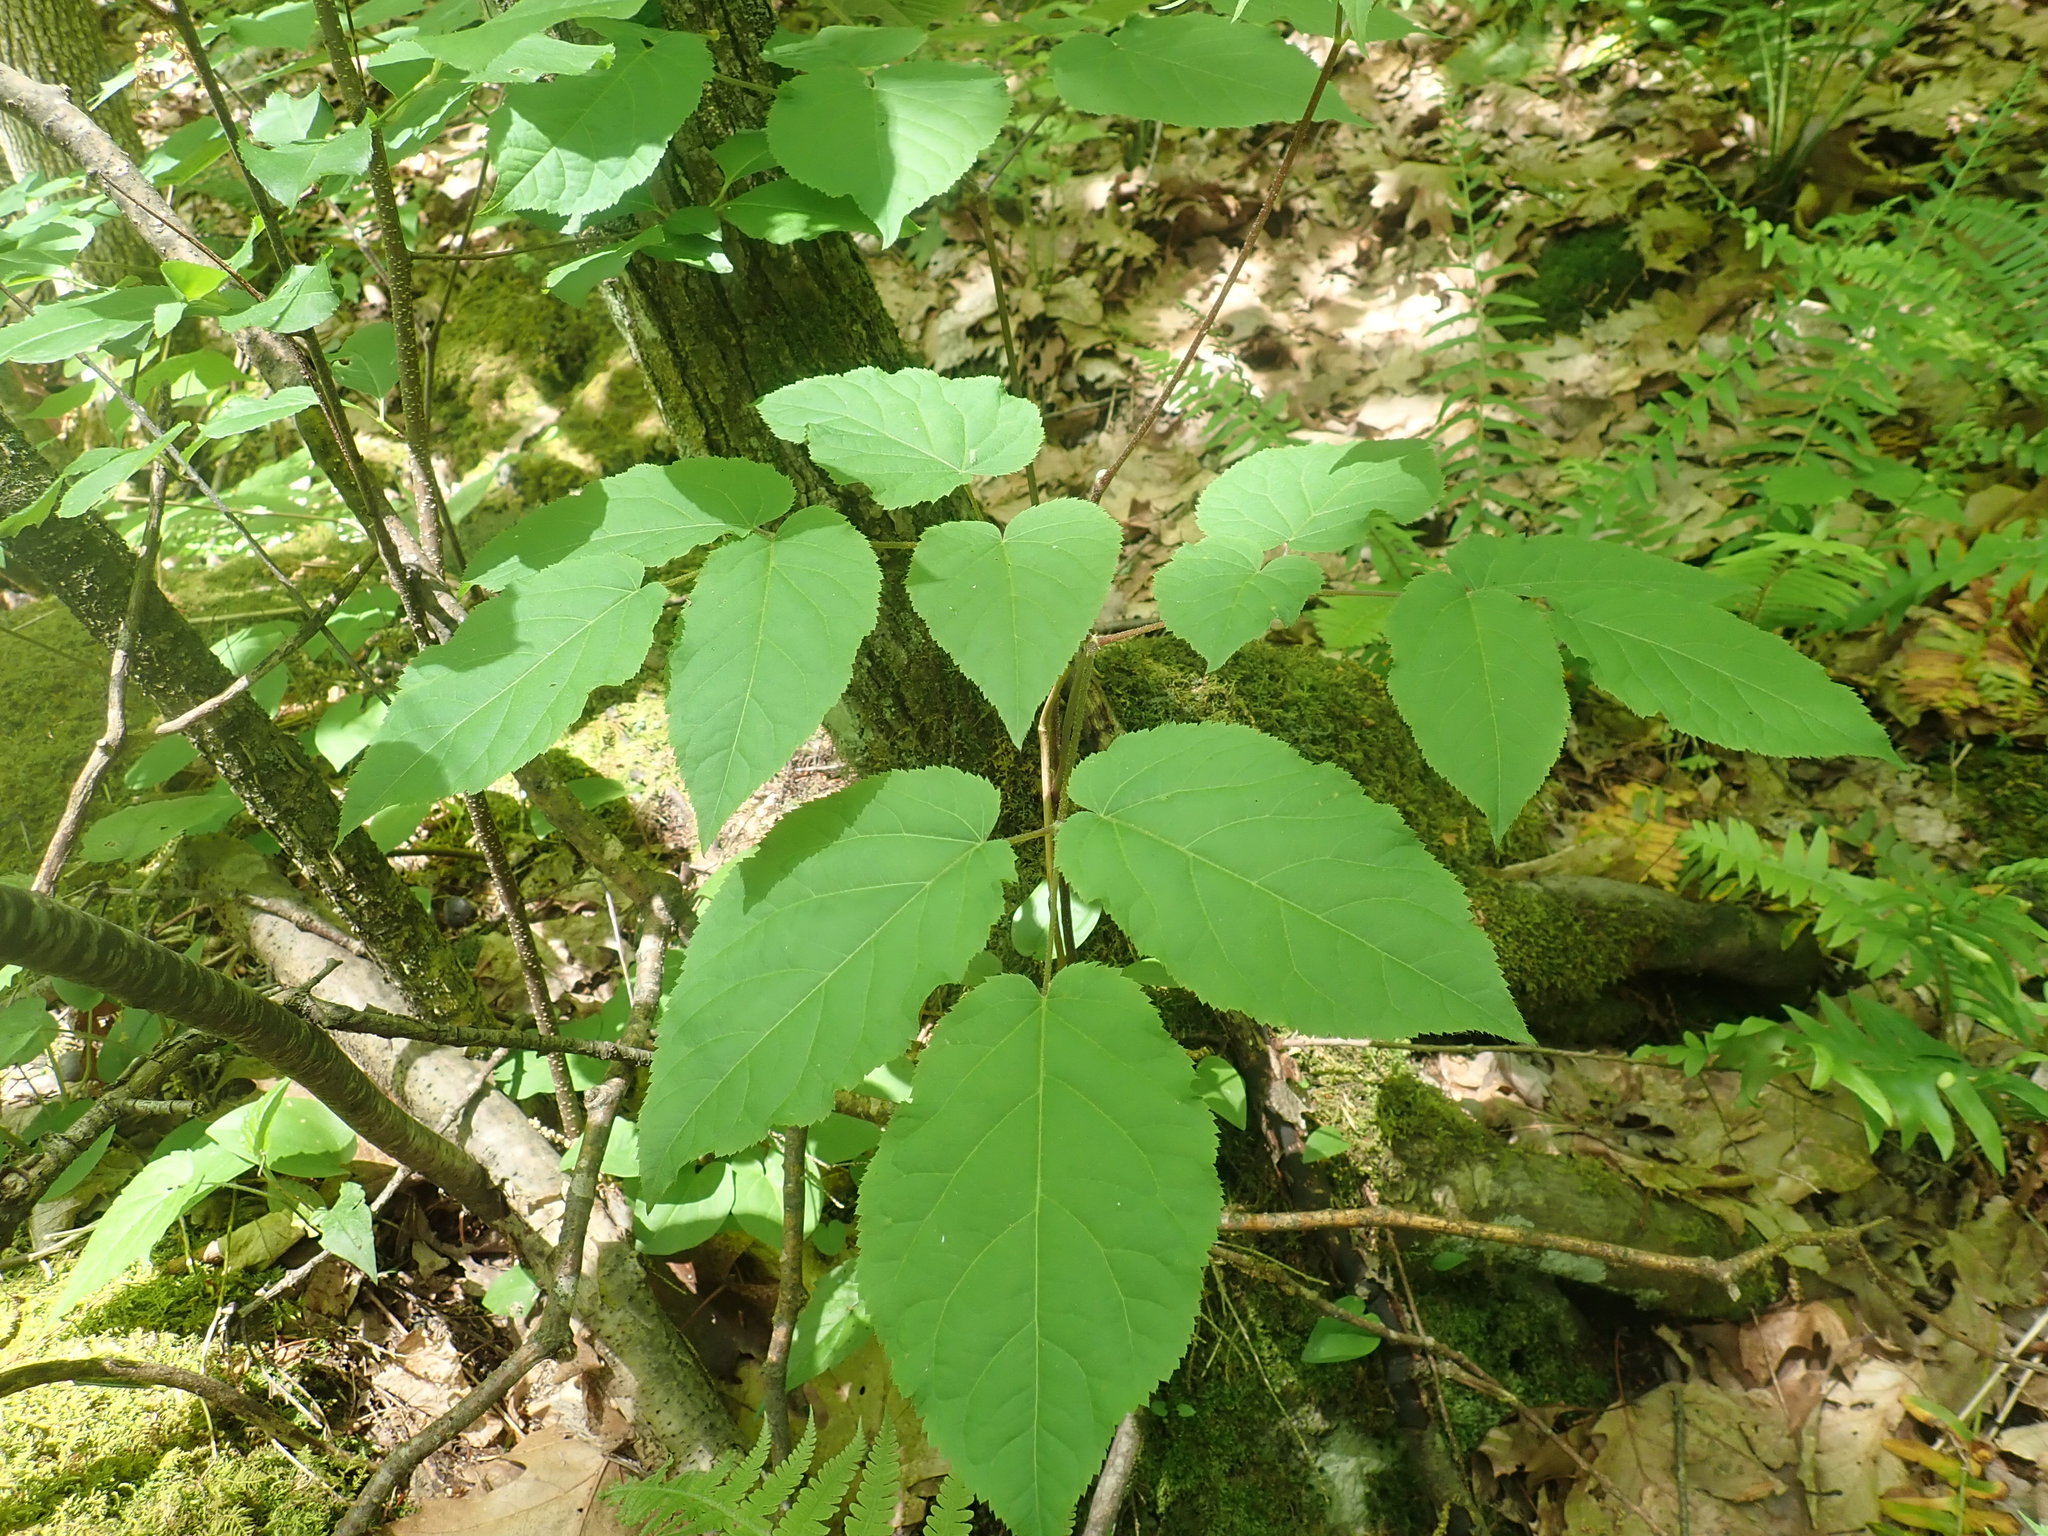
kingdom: Plantae
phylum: Tracheophyta
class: Magnoliopsida
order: Apiales
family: Araliaceae
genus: Aralia
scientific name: Aralia racemosa
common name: American-spikenard
